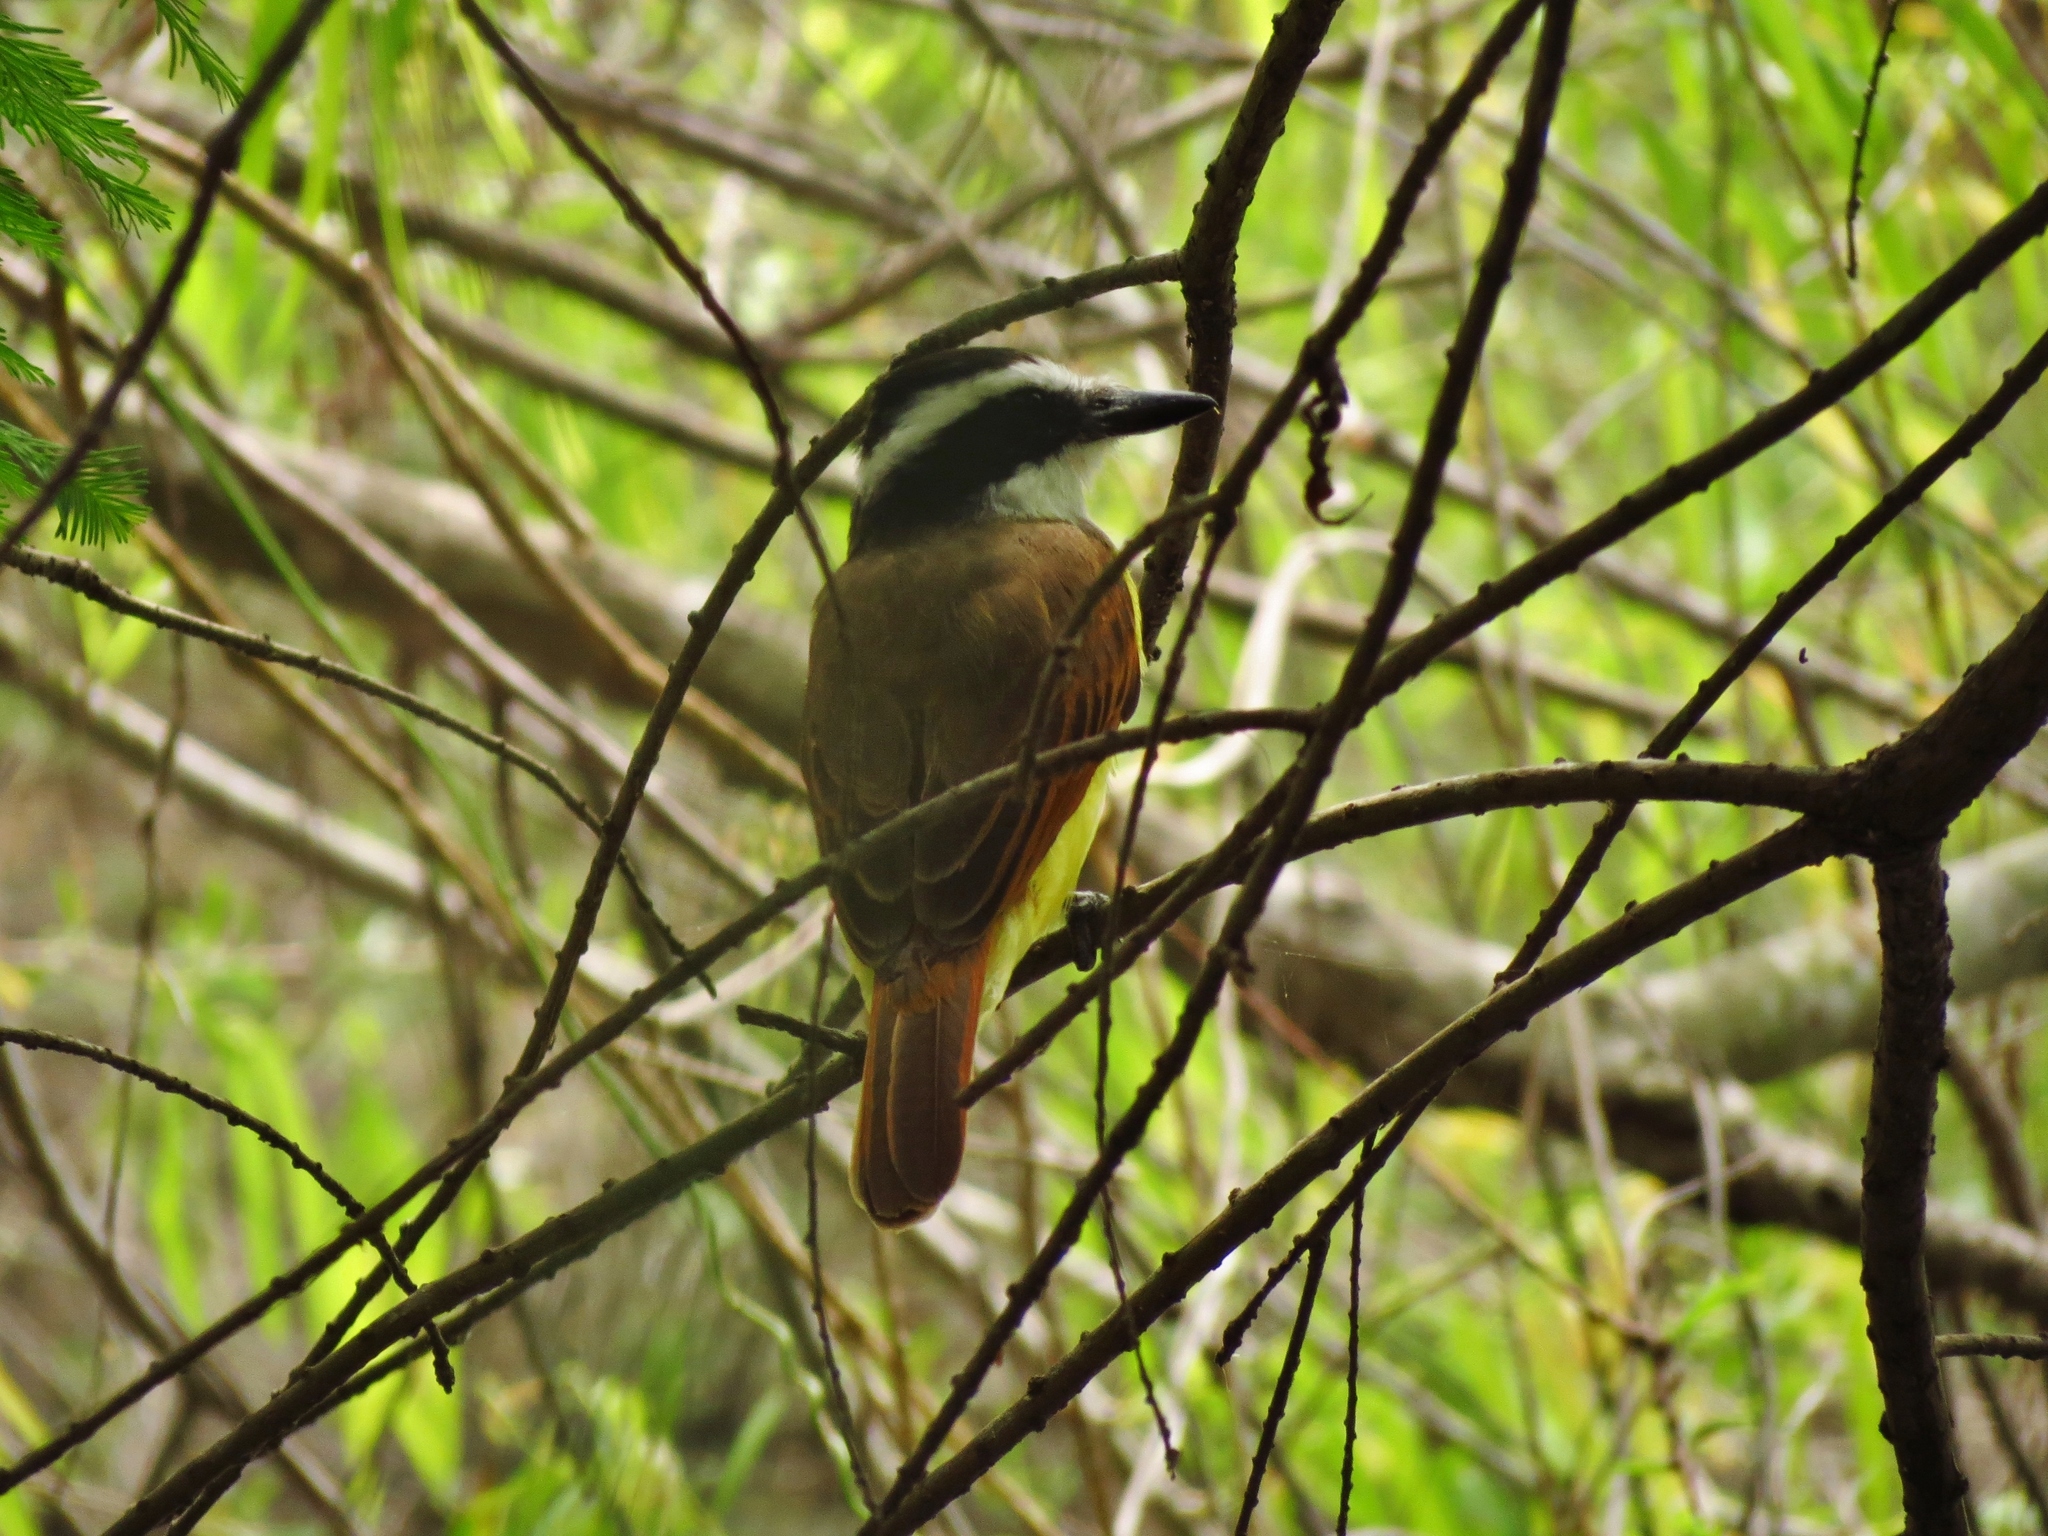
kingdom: Animalia
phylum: Chordata
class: Aves
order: Passeriformes
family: Tyrannidae
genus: Pitangus
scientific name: Pitangus sulphuratus
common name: Great kiskadee
